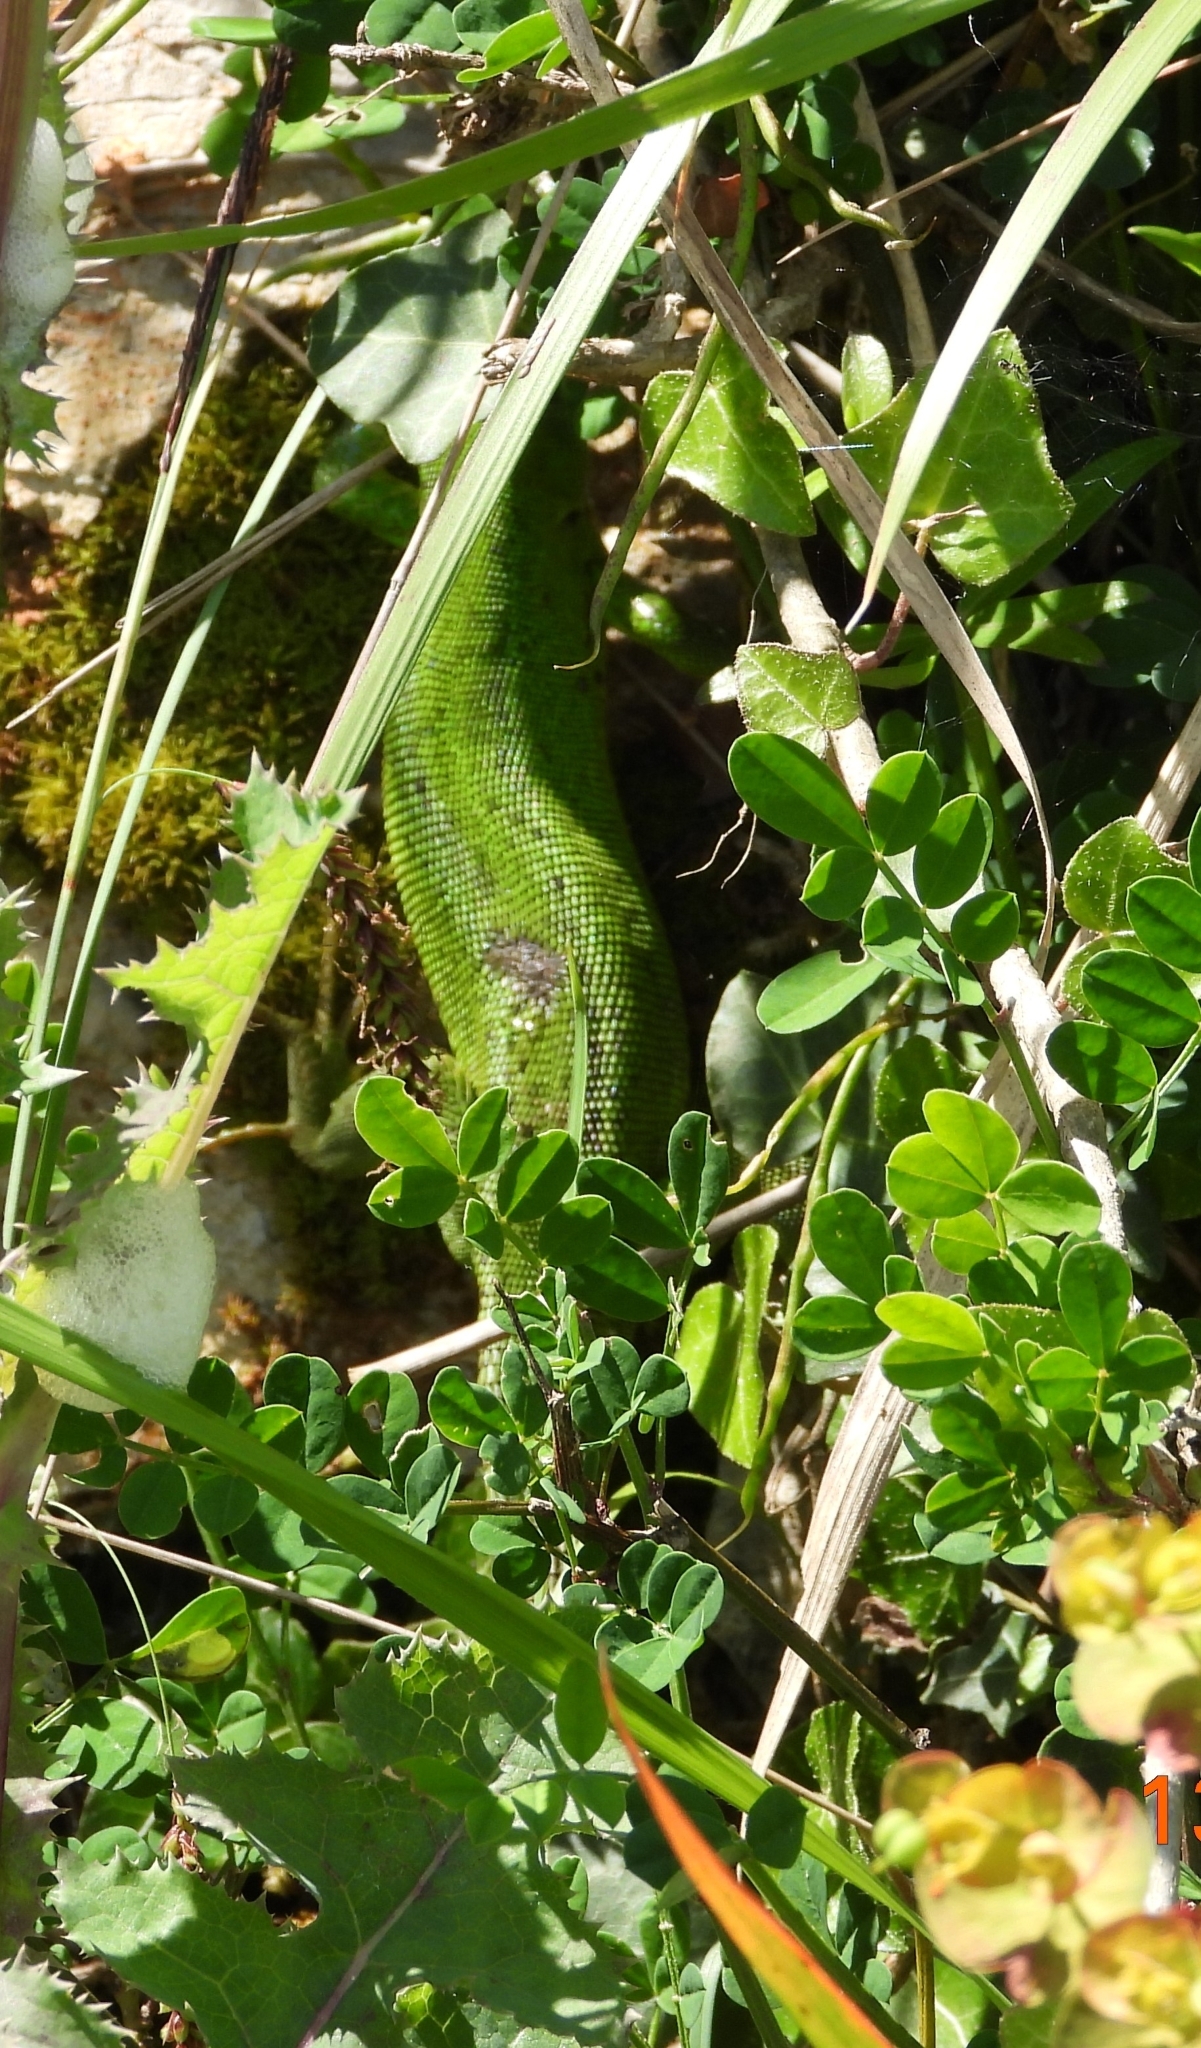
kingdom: Animalia
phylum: Chordata
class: Squamata
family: Lacertidae
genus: Lacerta
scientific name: Lacerta bilineata
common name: Western green lizard
